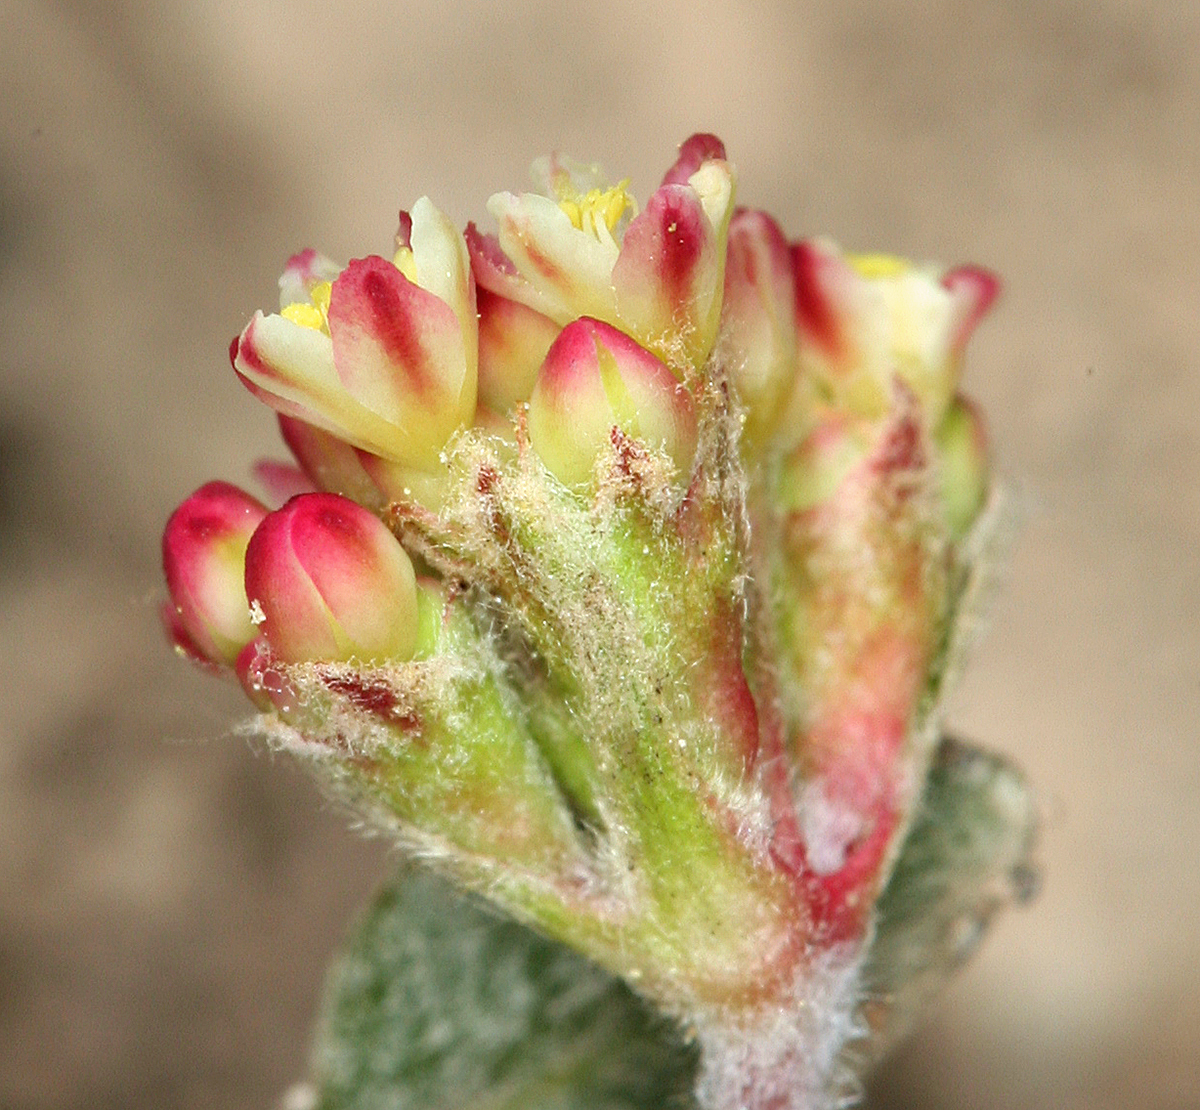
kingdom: Plantae
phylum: Tracheophyta
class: Magnoliopsida
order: Caryophyllales
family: Polygonaceae
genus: Eriogonum
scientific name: Eriogonum marifolium
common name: Marum-leaf wild buckwheat
